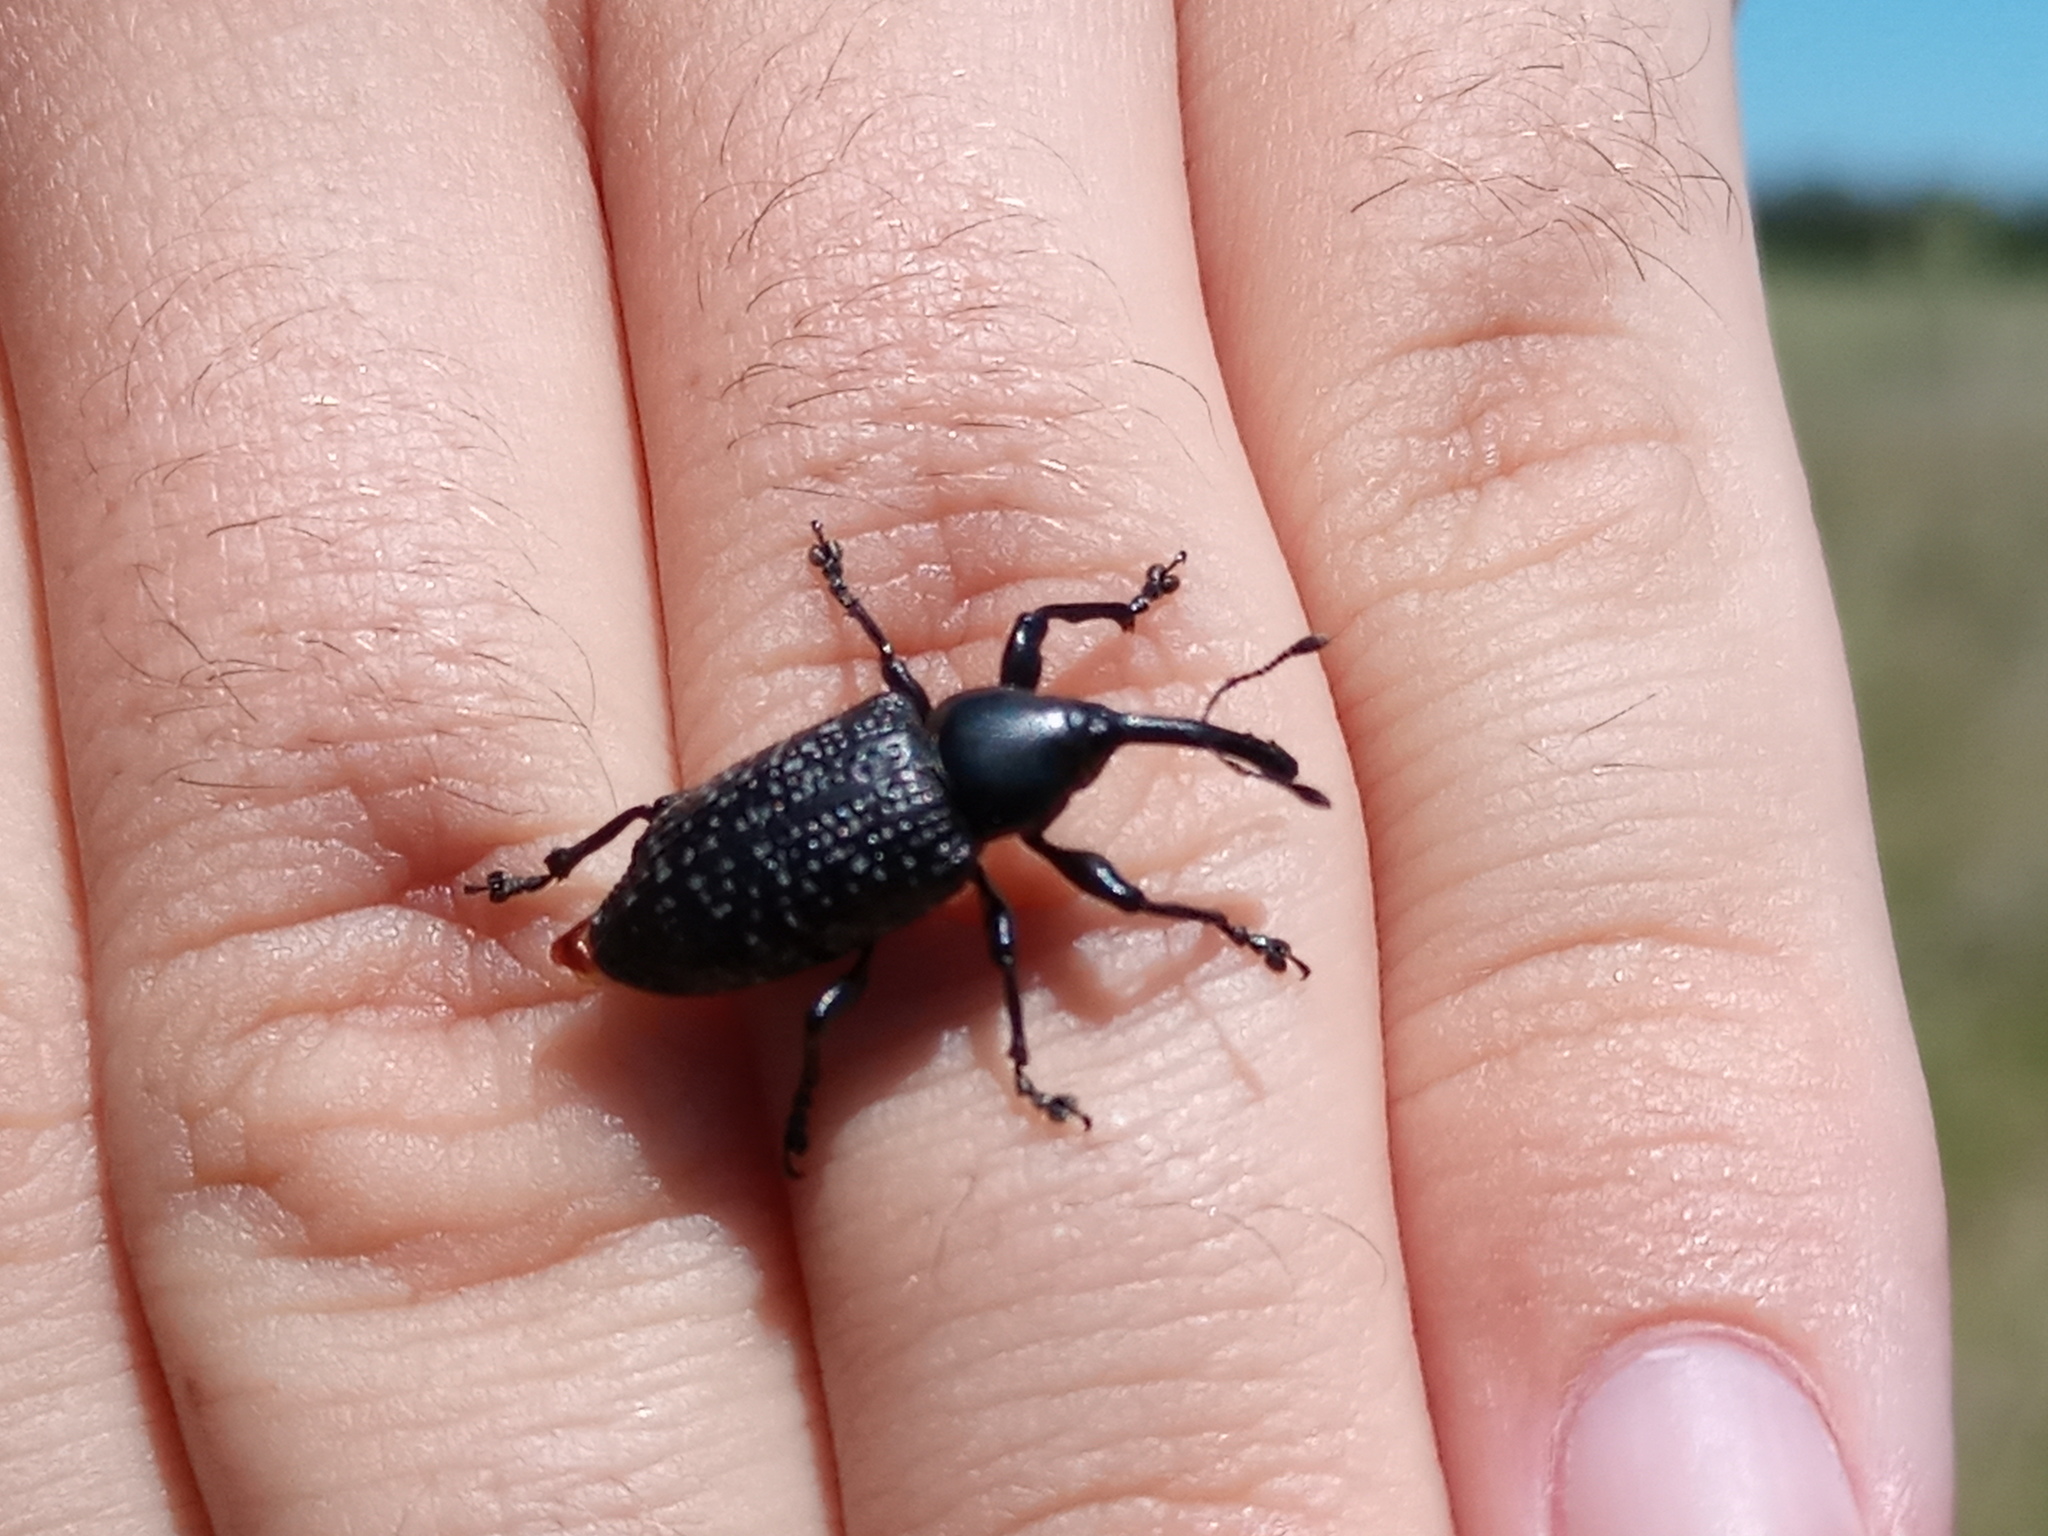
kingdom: Animalia
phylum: Arthropoda
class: Insecta
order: Coleoptera
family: Curculionidae
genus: Heilipodus
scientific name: Heilipodus scabripennis
